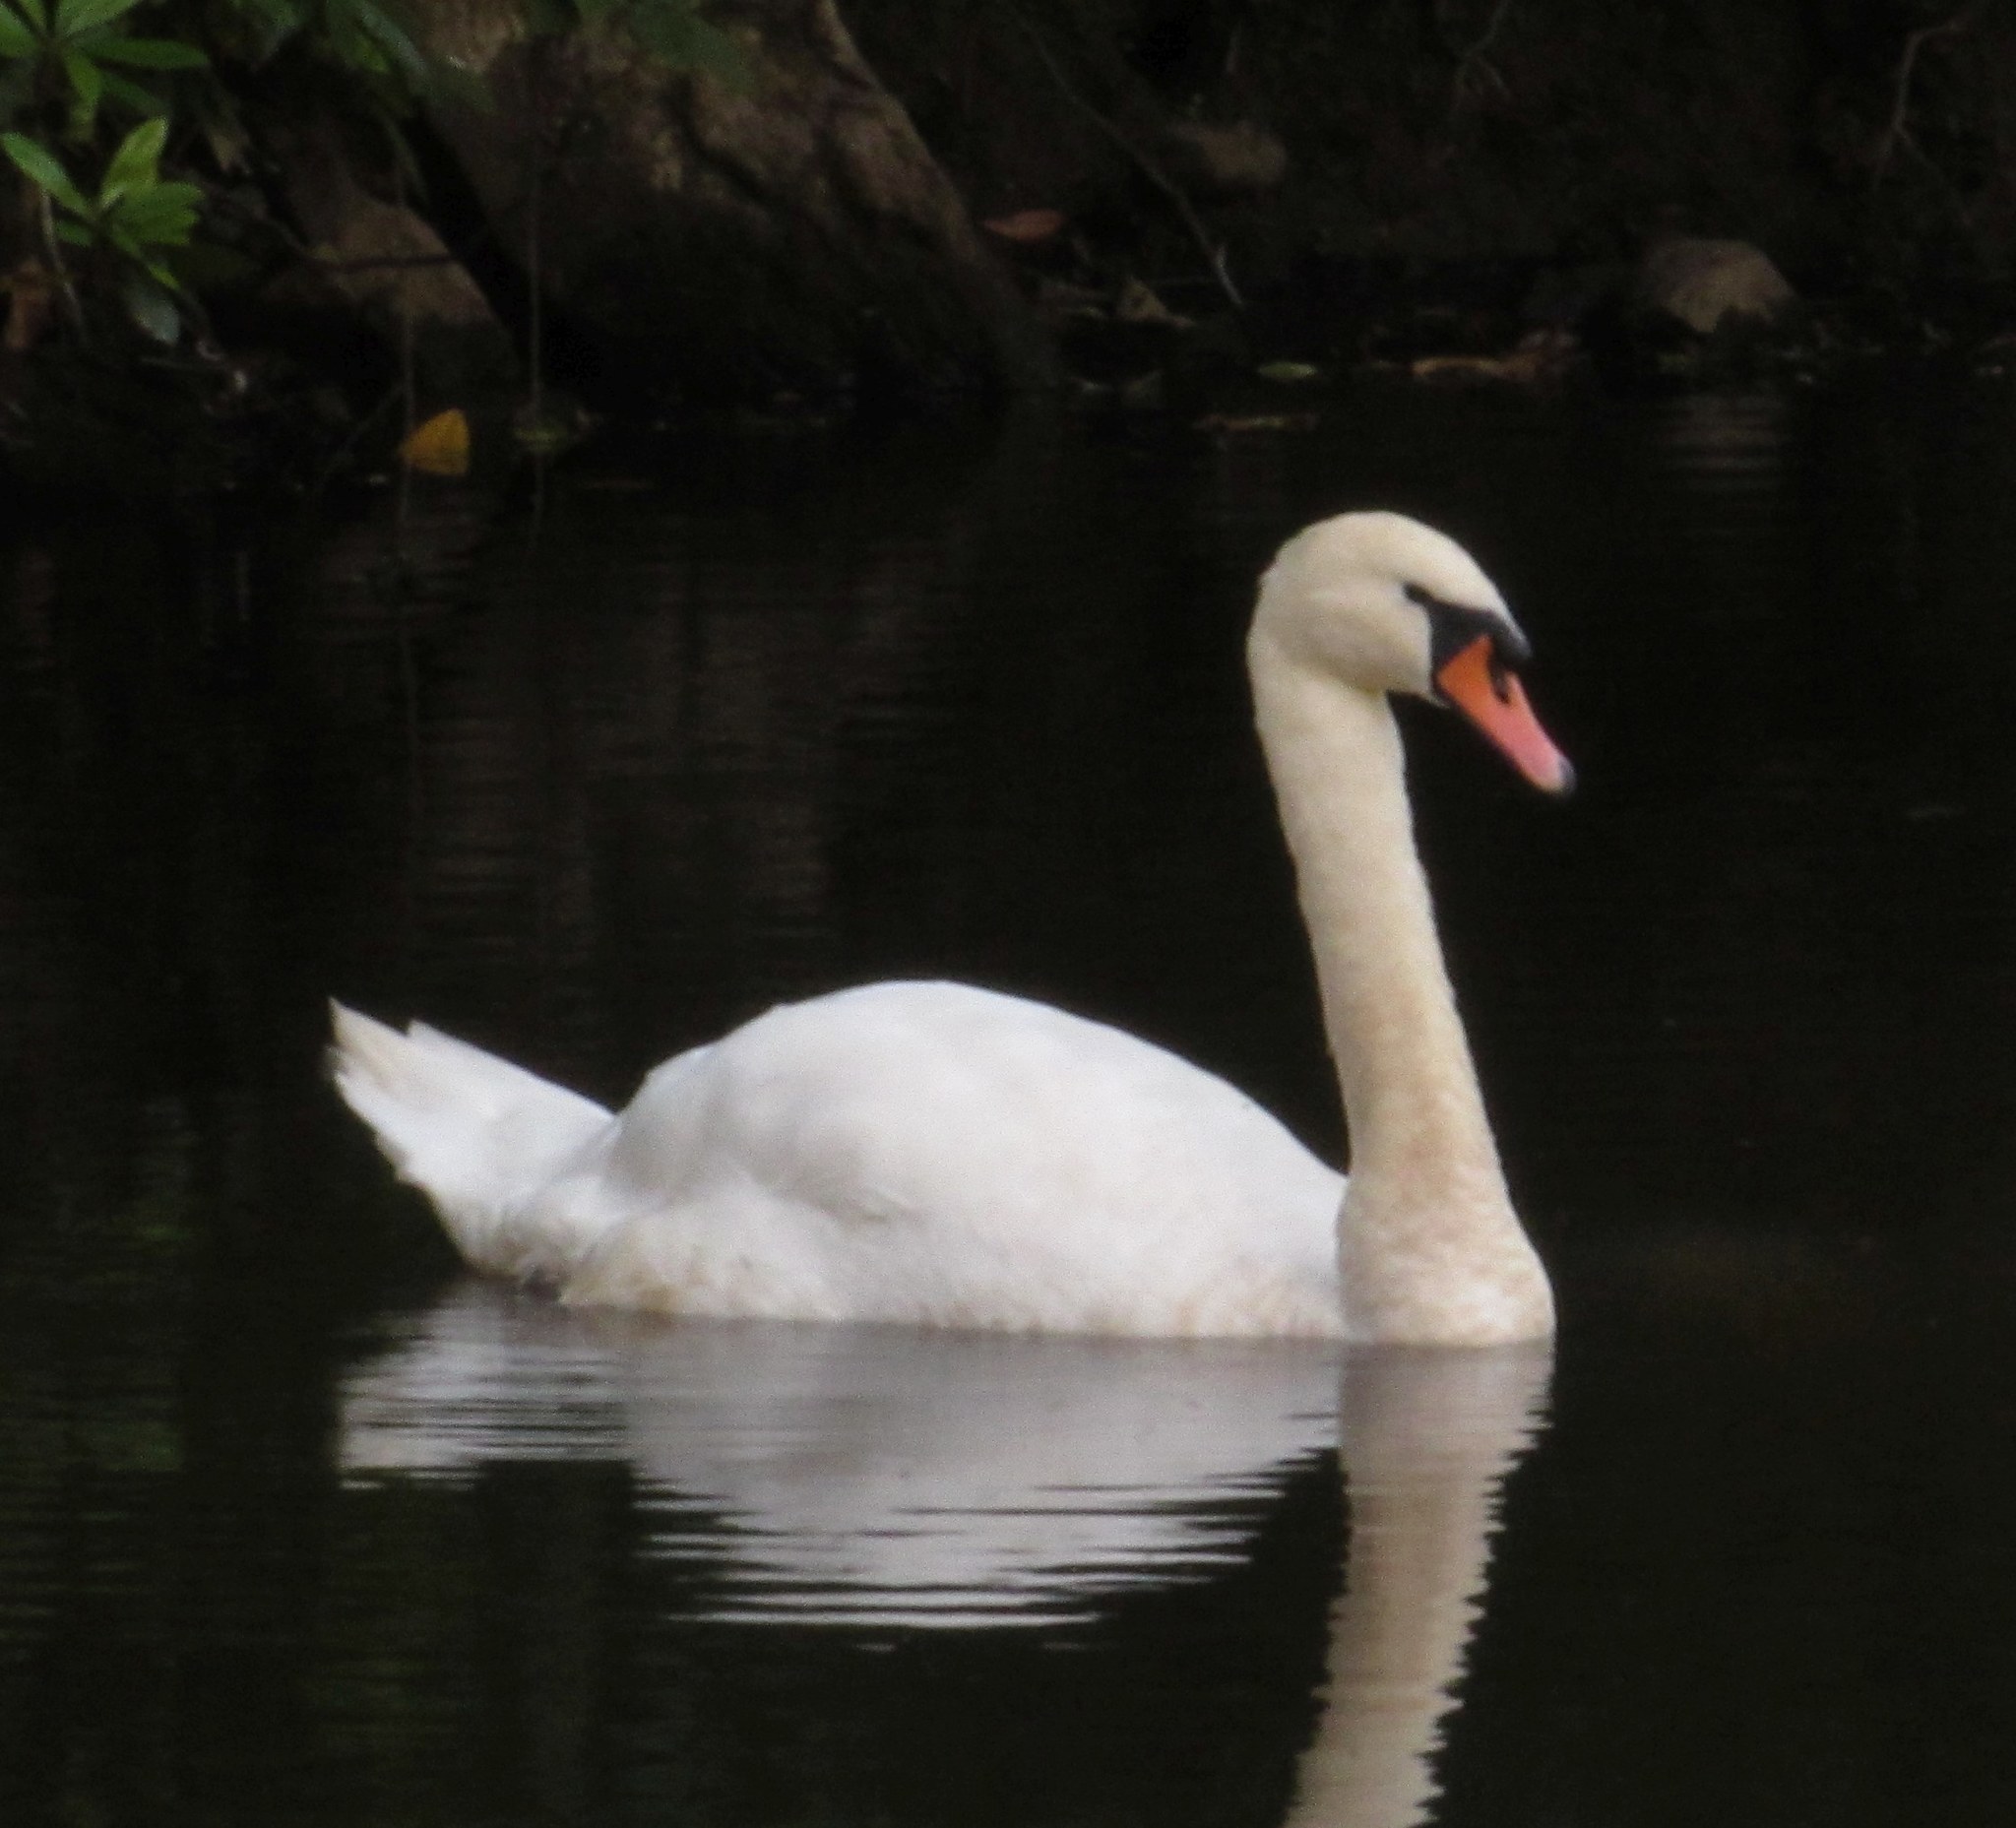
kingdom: Animalia
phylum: Chordata
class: Aves
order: Anseriformes
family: Anatidae
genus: Cygnus
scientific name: Cygnus olor
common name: Mute swan
